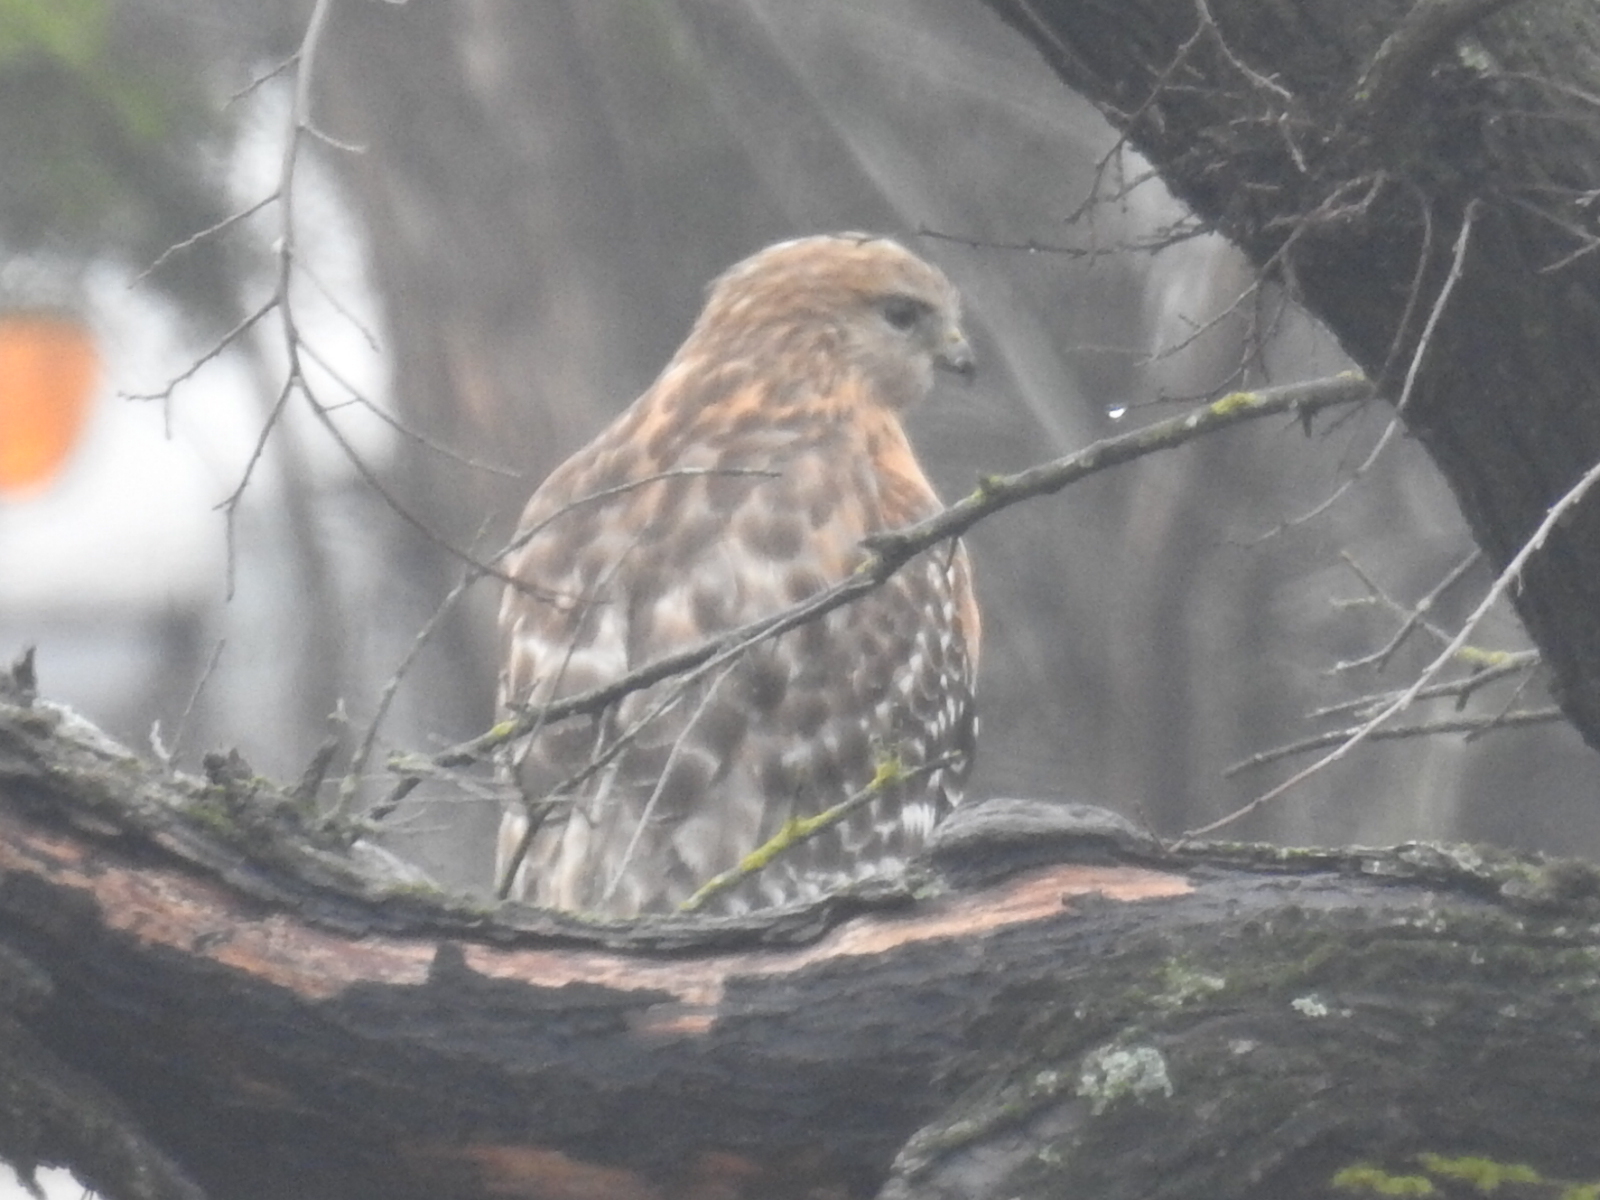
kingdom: Animalia
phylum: Chordata
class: Aves
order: Accipitriformes
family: Accipitridae
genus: Buteo
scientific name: Buteo lineatus
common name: Red-shouldered hawk
